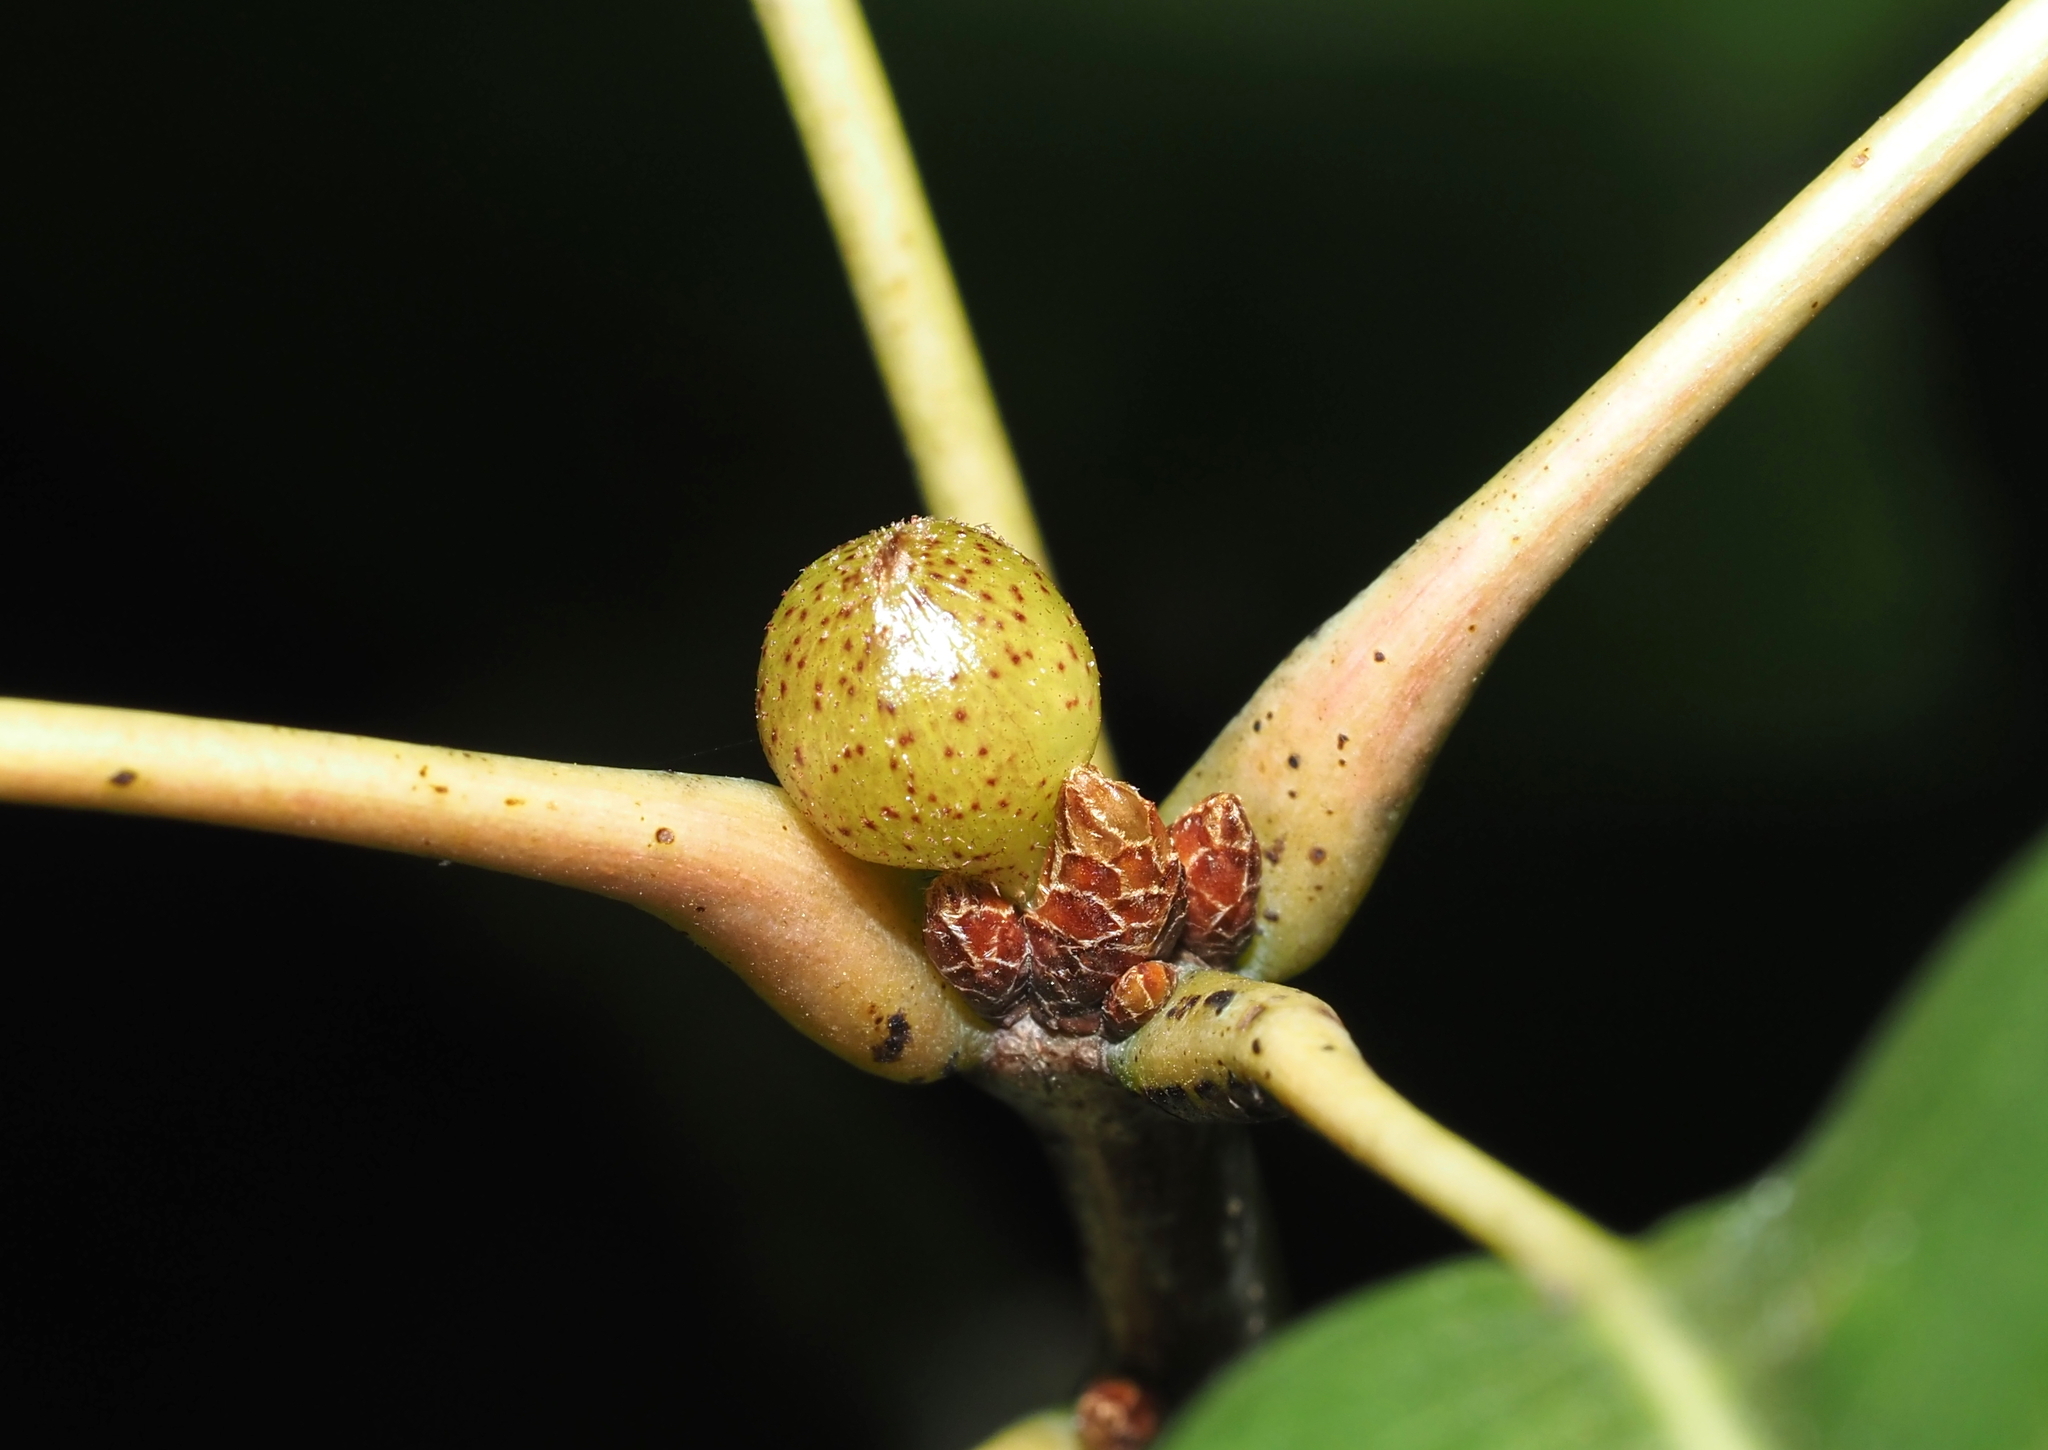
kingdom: Animalia
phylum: Arthropoda
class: Insecta
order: Hymenoptera
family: Cynipidae
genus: Amphibolips
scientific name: Amphibolips
